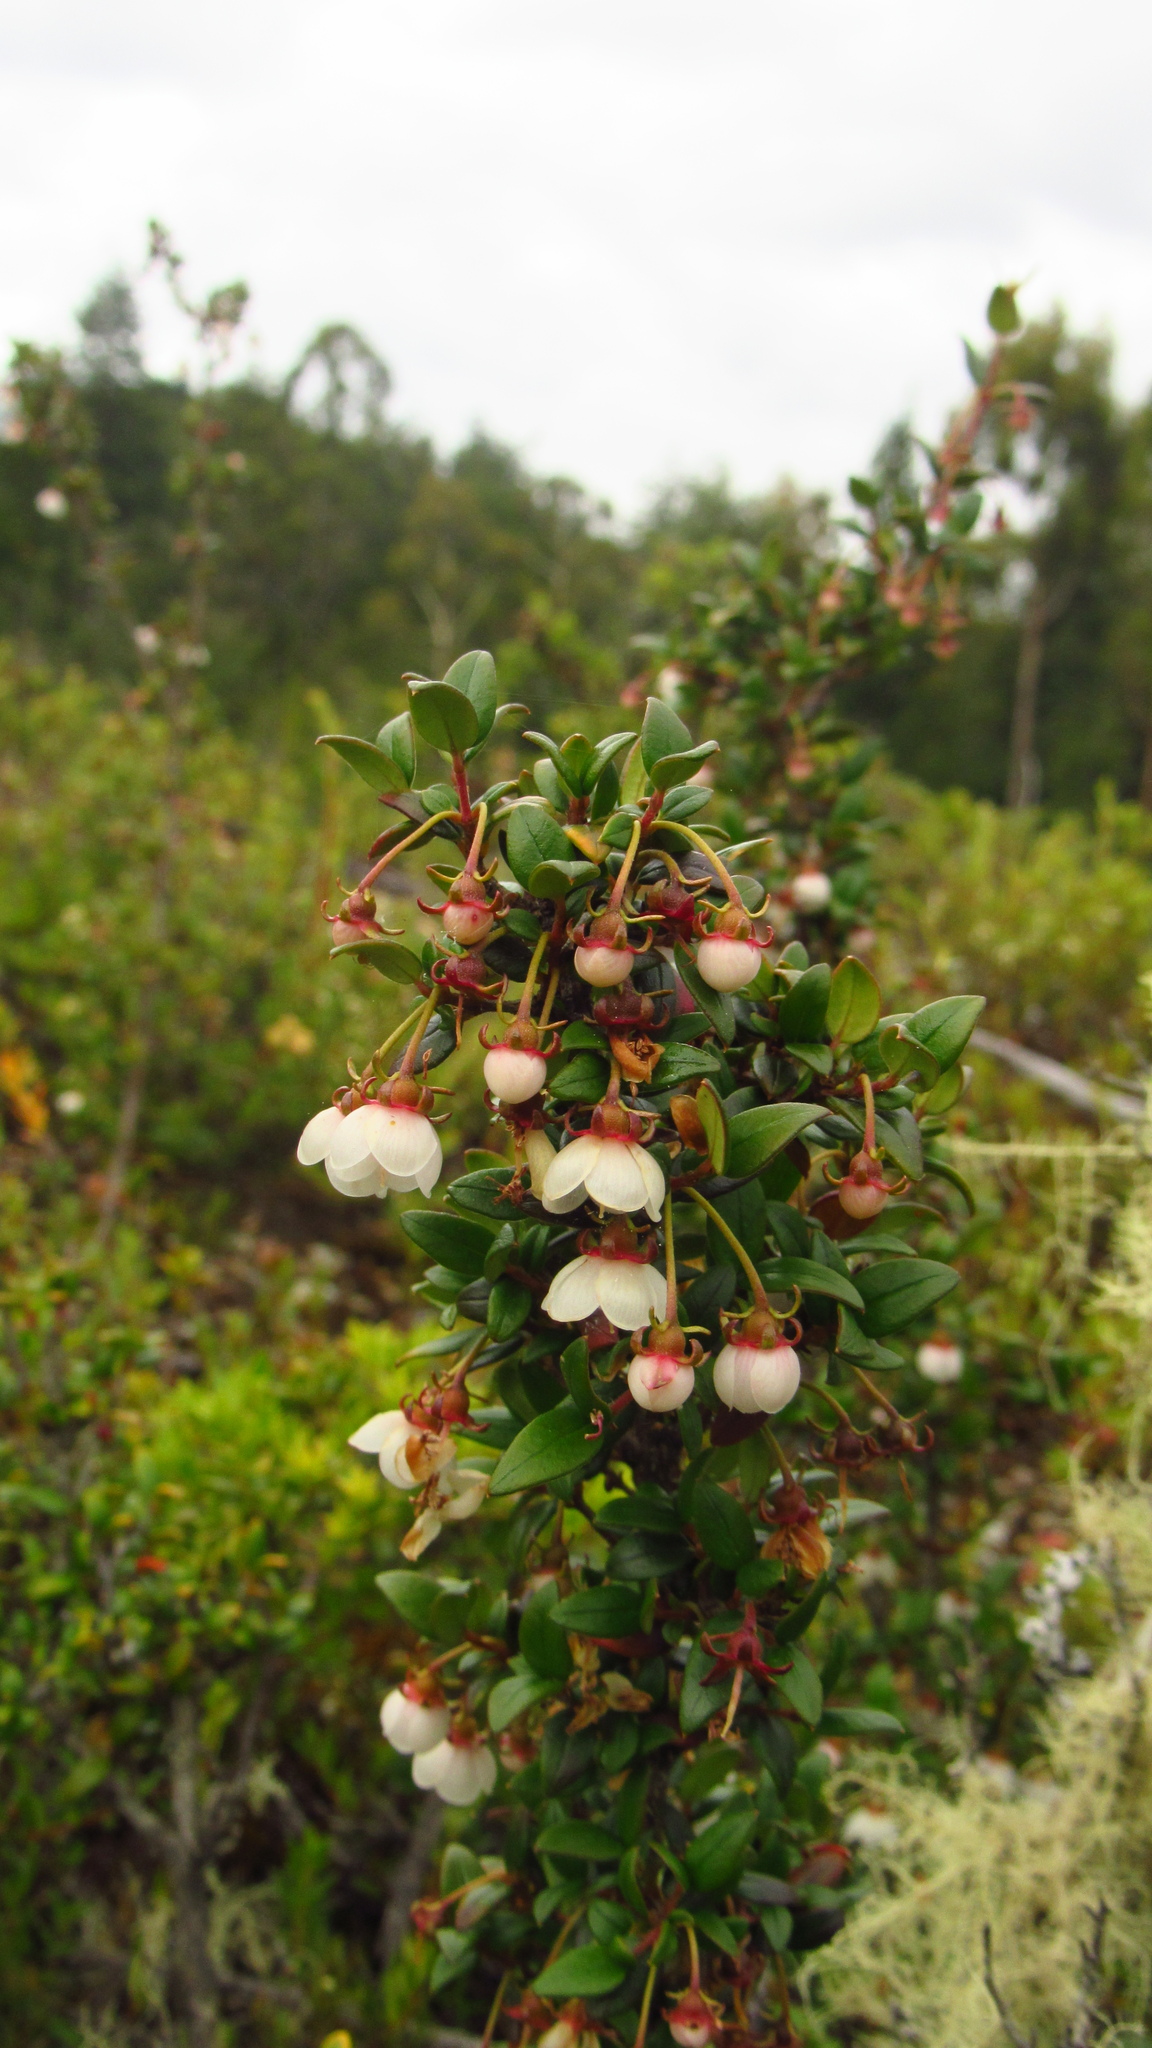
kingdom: Plantae
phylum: Tracheophyta
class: Magnoliopsida
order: Myrtales
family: Myrtaceae
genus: Ugni
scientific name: Ugni molinae
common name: Chilean-guava
